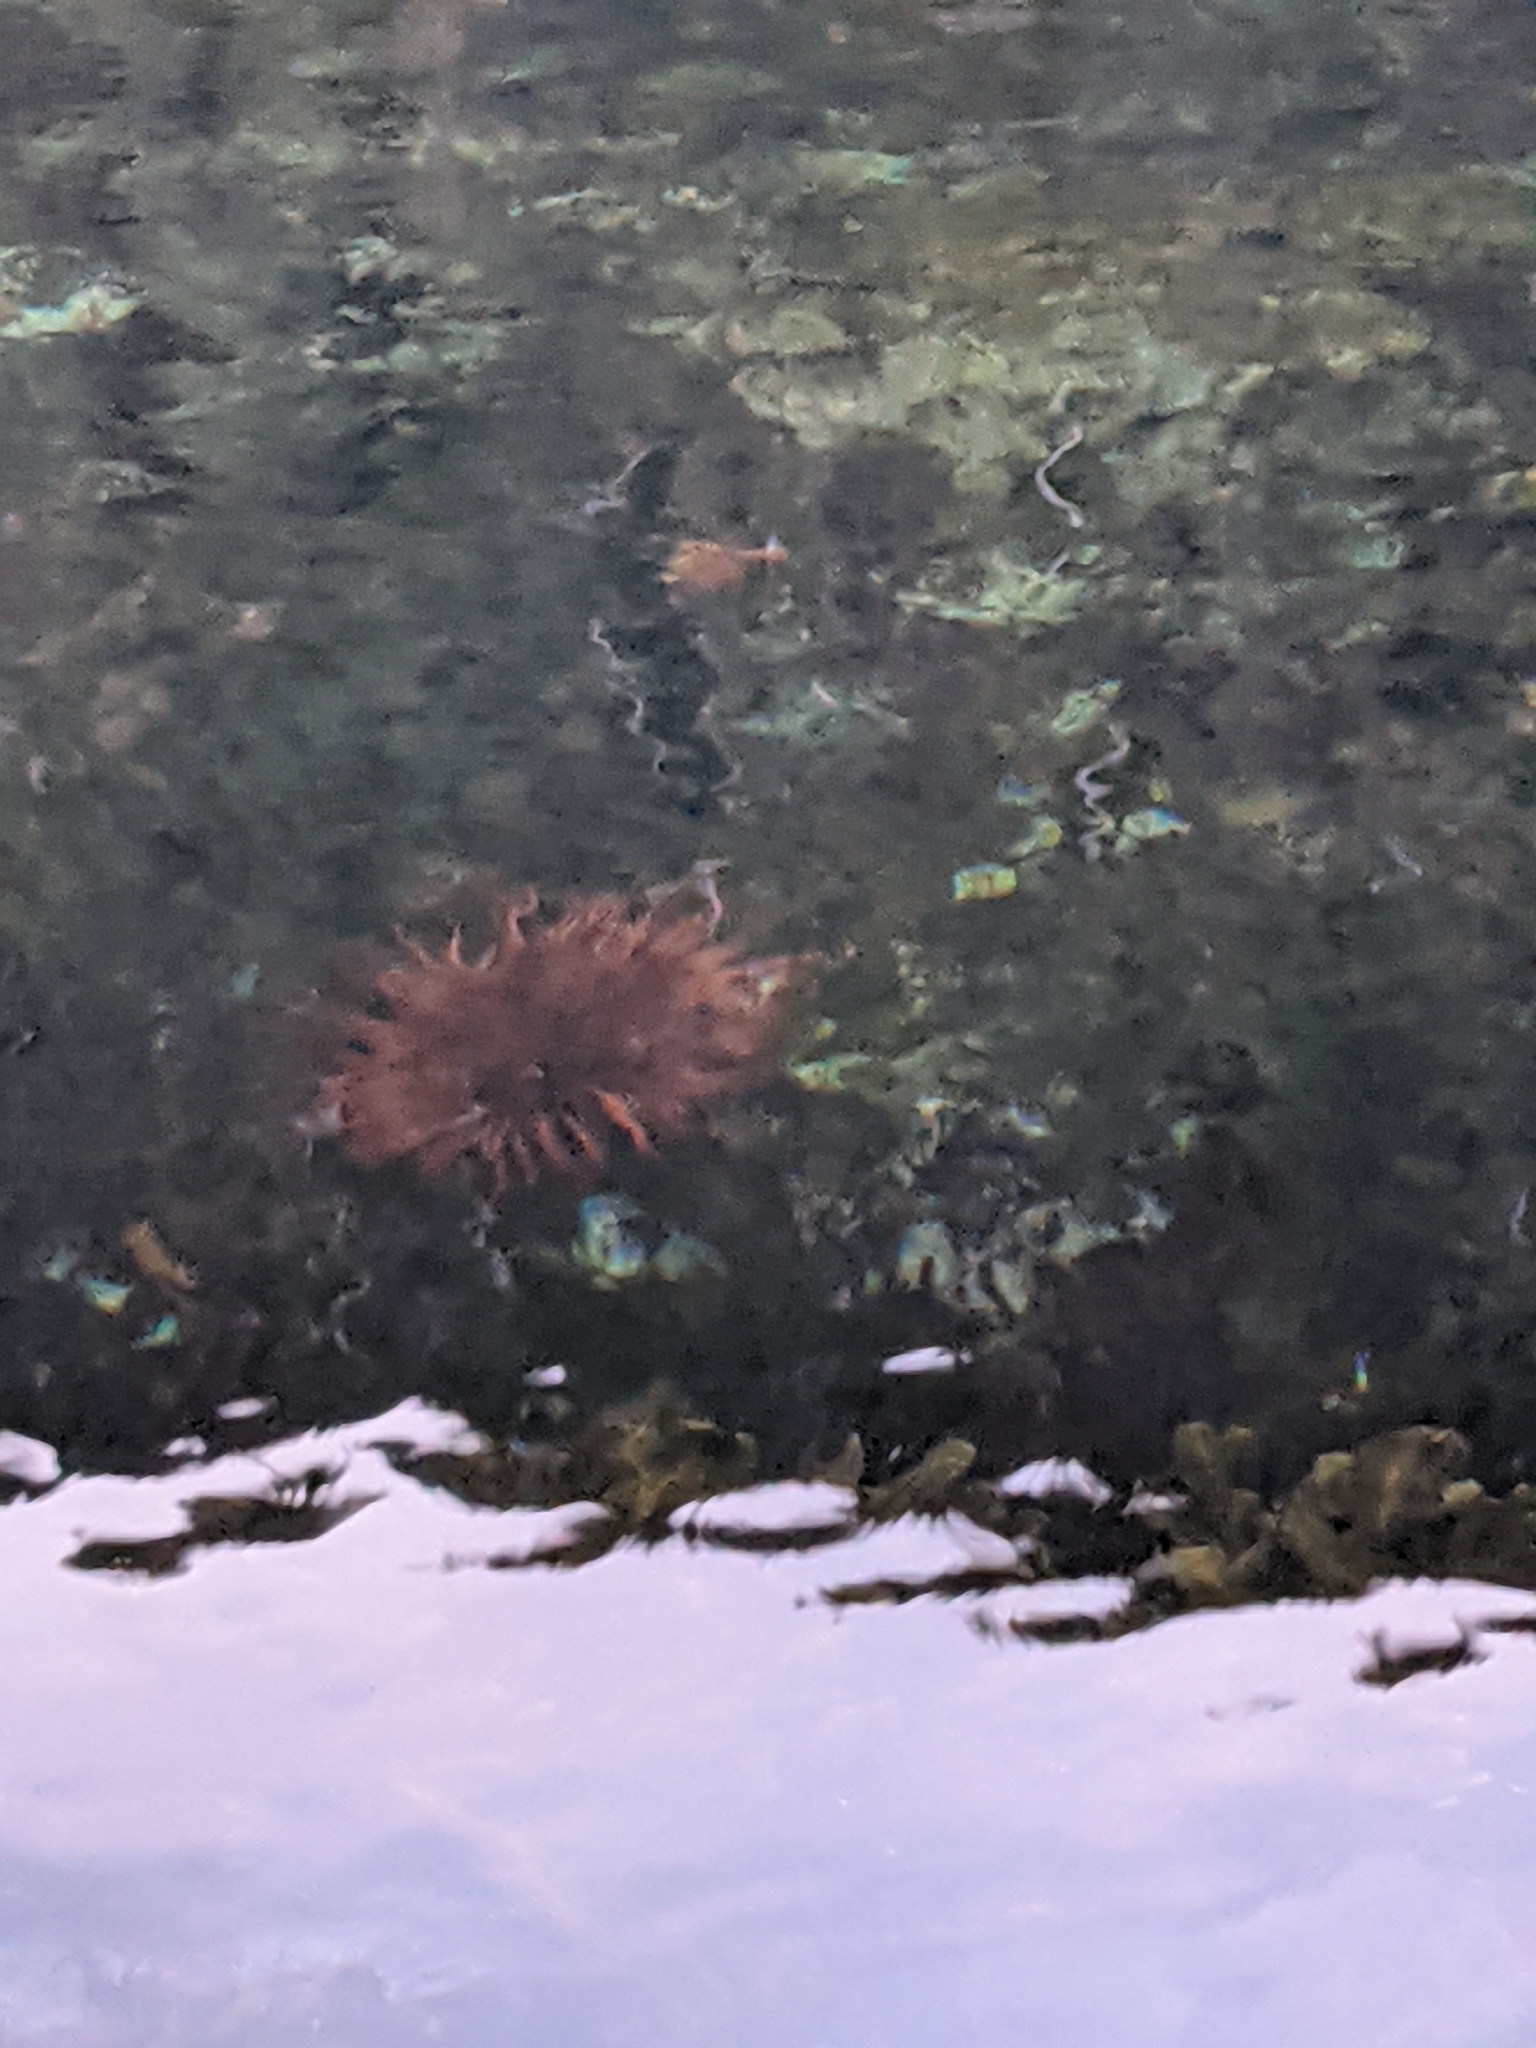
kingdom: Animalia
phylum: Echinodermata
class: Echinoidea
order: Camarodonta
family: Strongylocentrotidae
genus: Mesocentrotus
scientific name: Mesocentrotus franciscanus
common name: Red sea urchin
